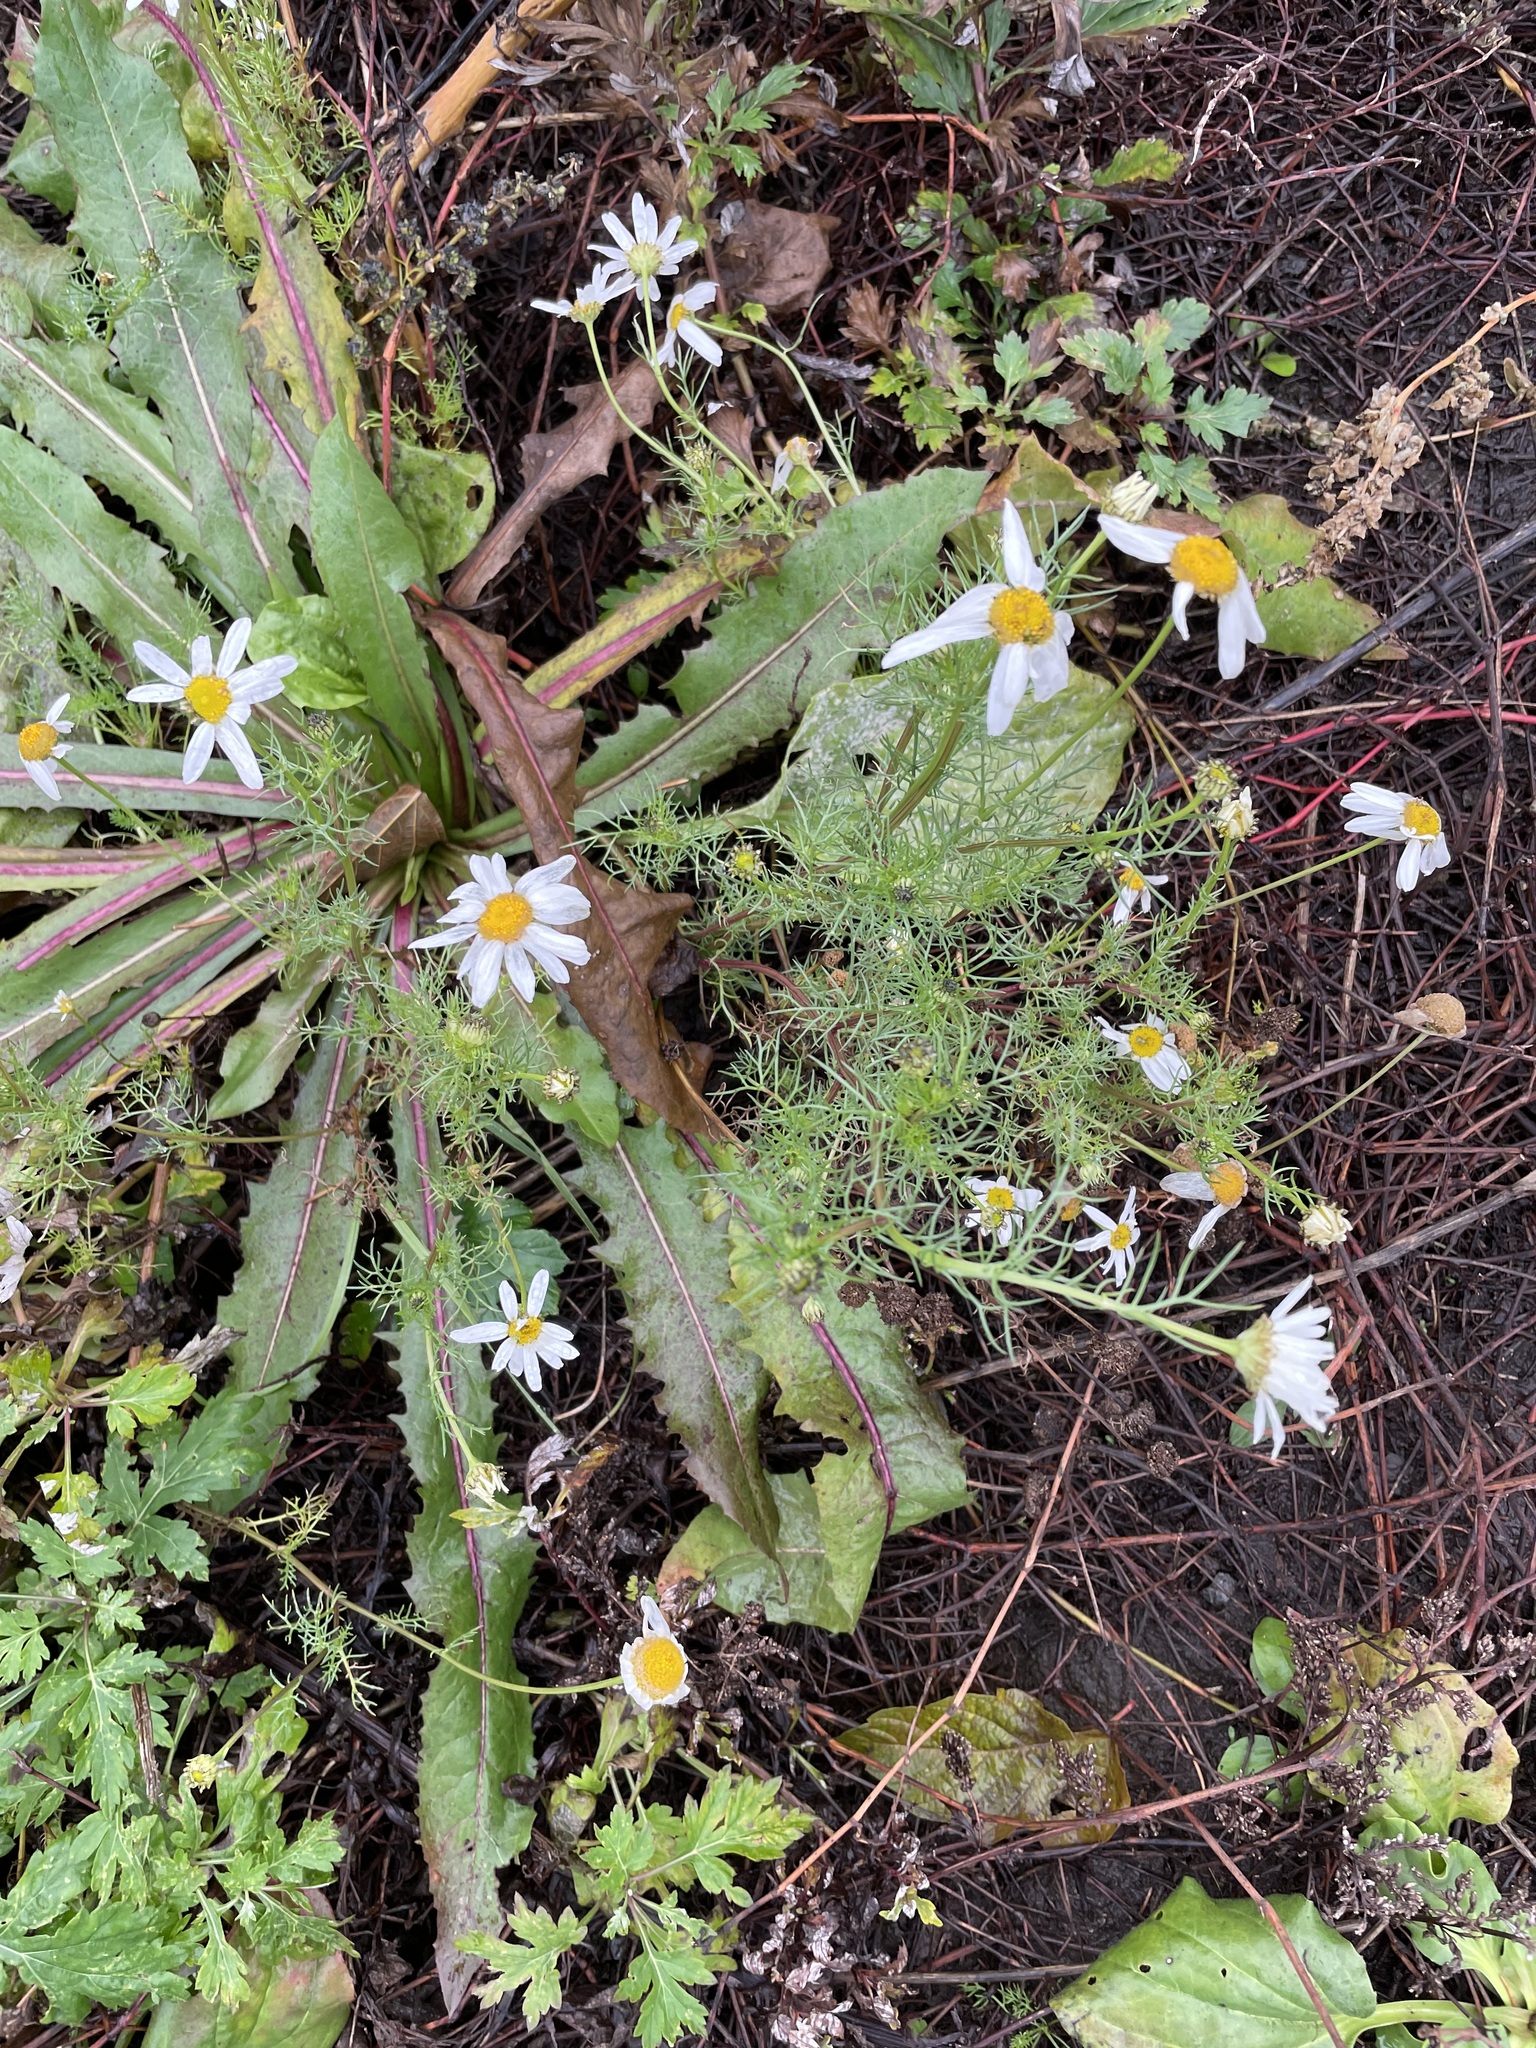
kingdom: Plantae
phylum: Tracheophyta
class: Magnoliopsida
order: Asterales
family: Asteraceae
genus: Tripleurospermum
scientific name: Tripleurospermum inodorum
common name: Scentless mayweed
